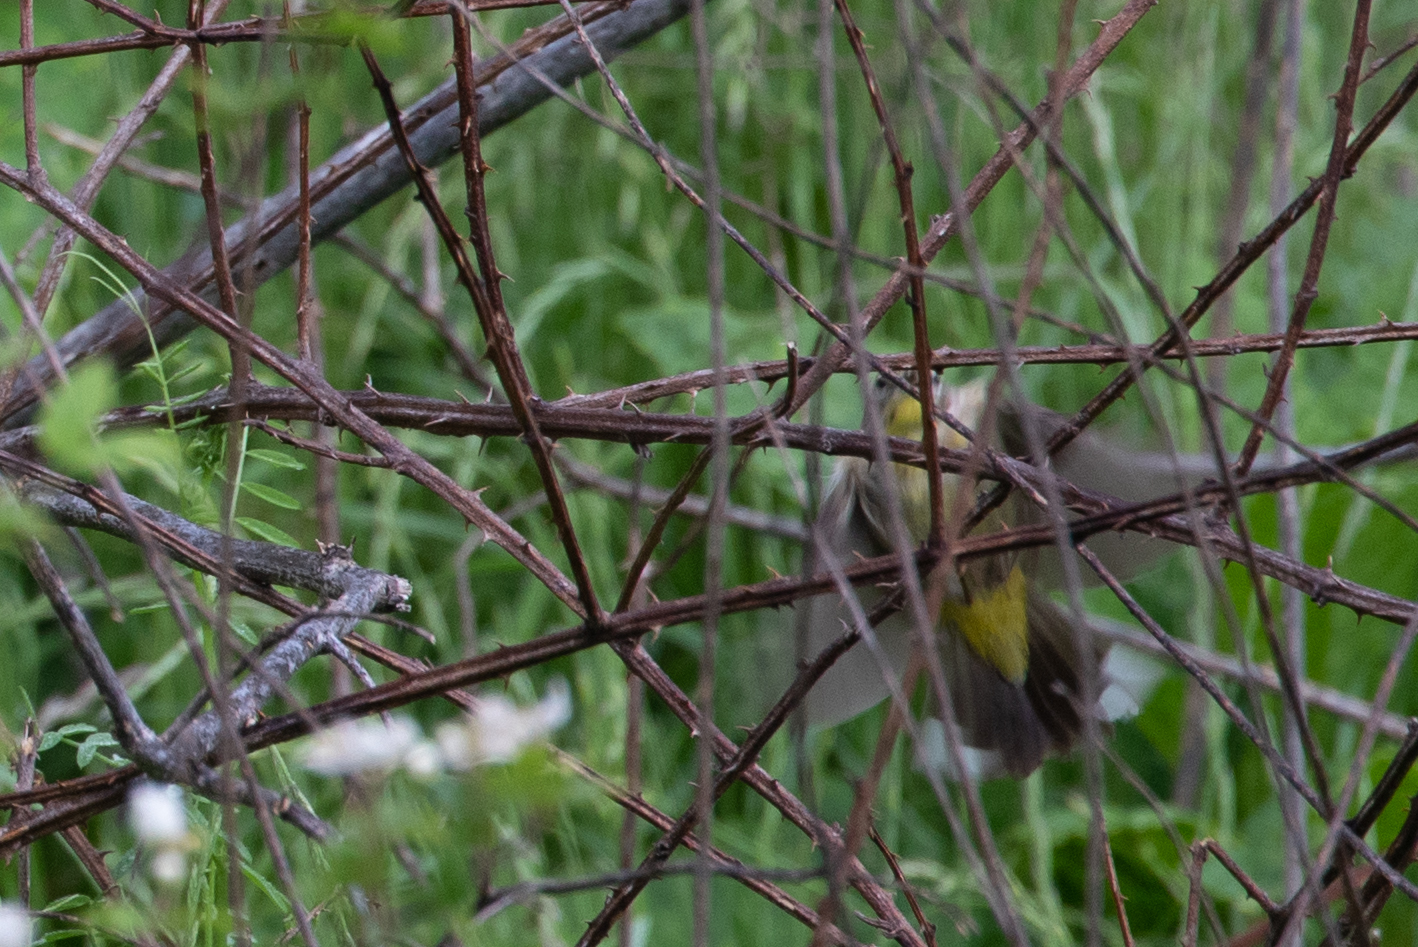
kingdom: Animalia
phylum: Chordata
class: Aves
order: Passeriformes
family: Parulidae
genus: Setophaga
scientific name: Setophaga palmarum
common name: Palm warbler
